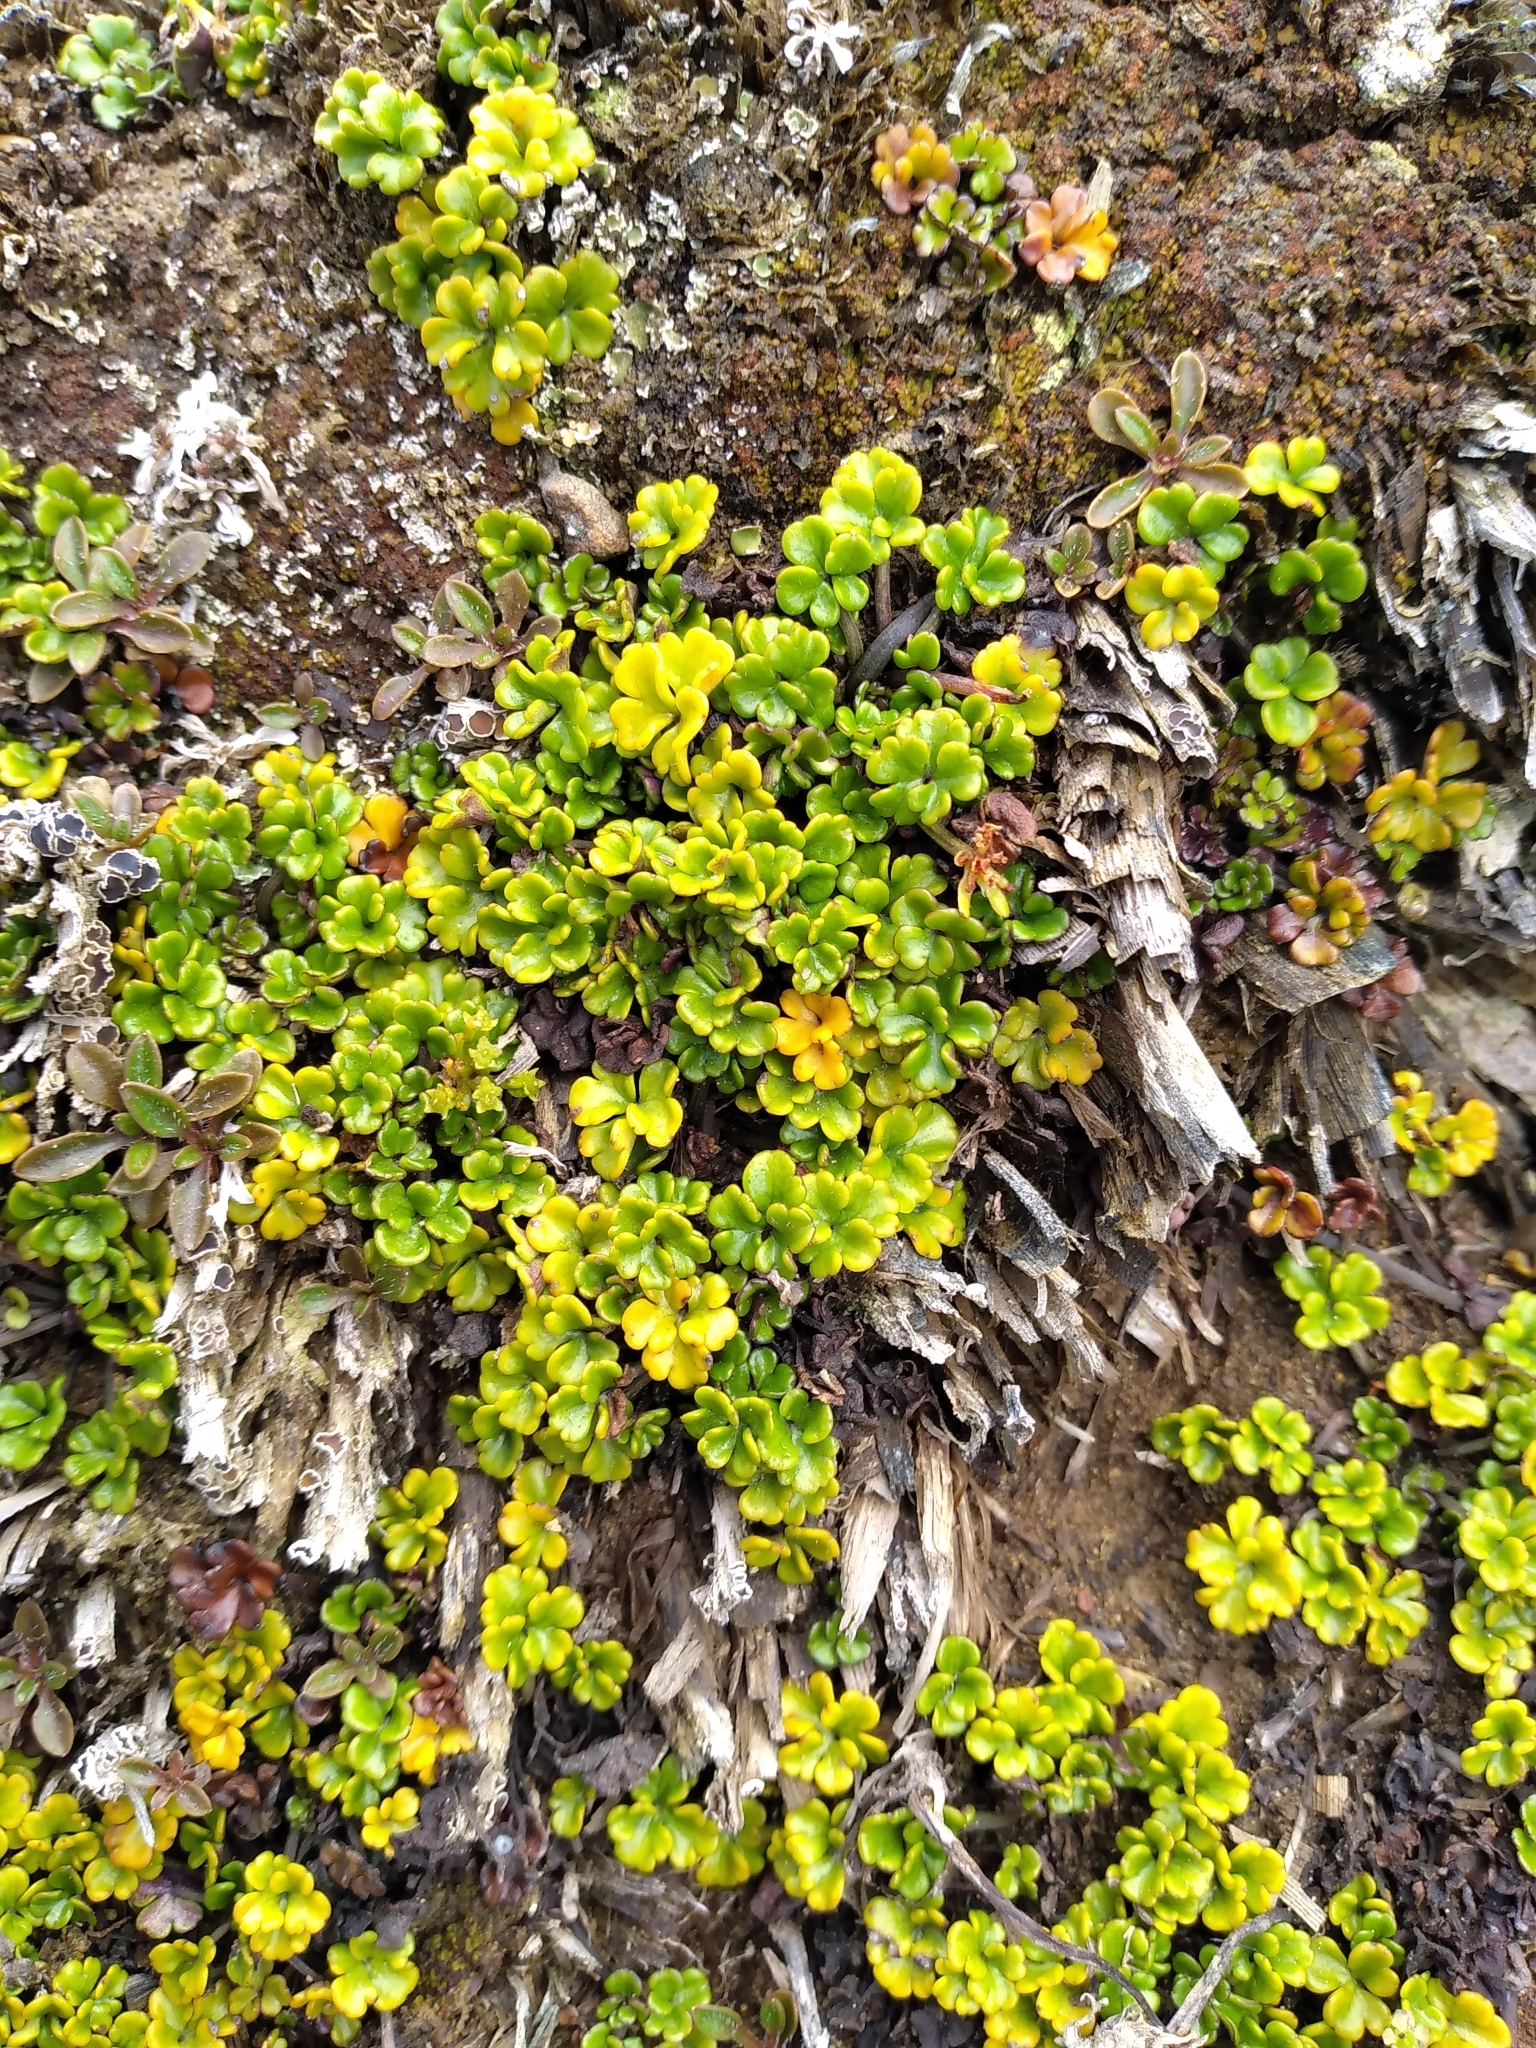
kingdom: Plantae
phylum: Tracheophyta
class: Magnoliopsida
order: Apiales
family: Apiaceae
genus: Azorella
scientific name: Azorella hydrocotyloides
